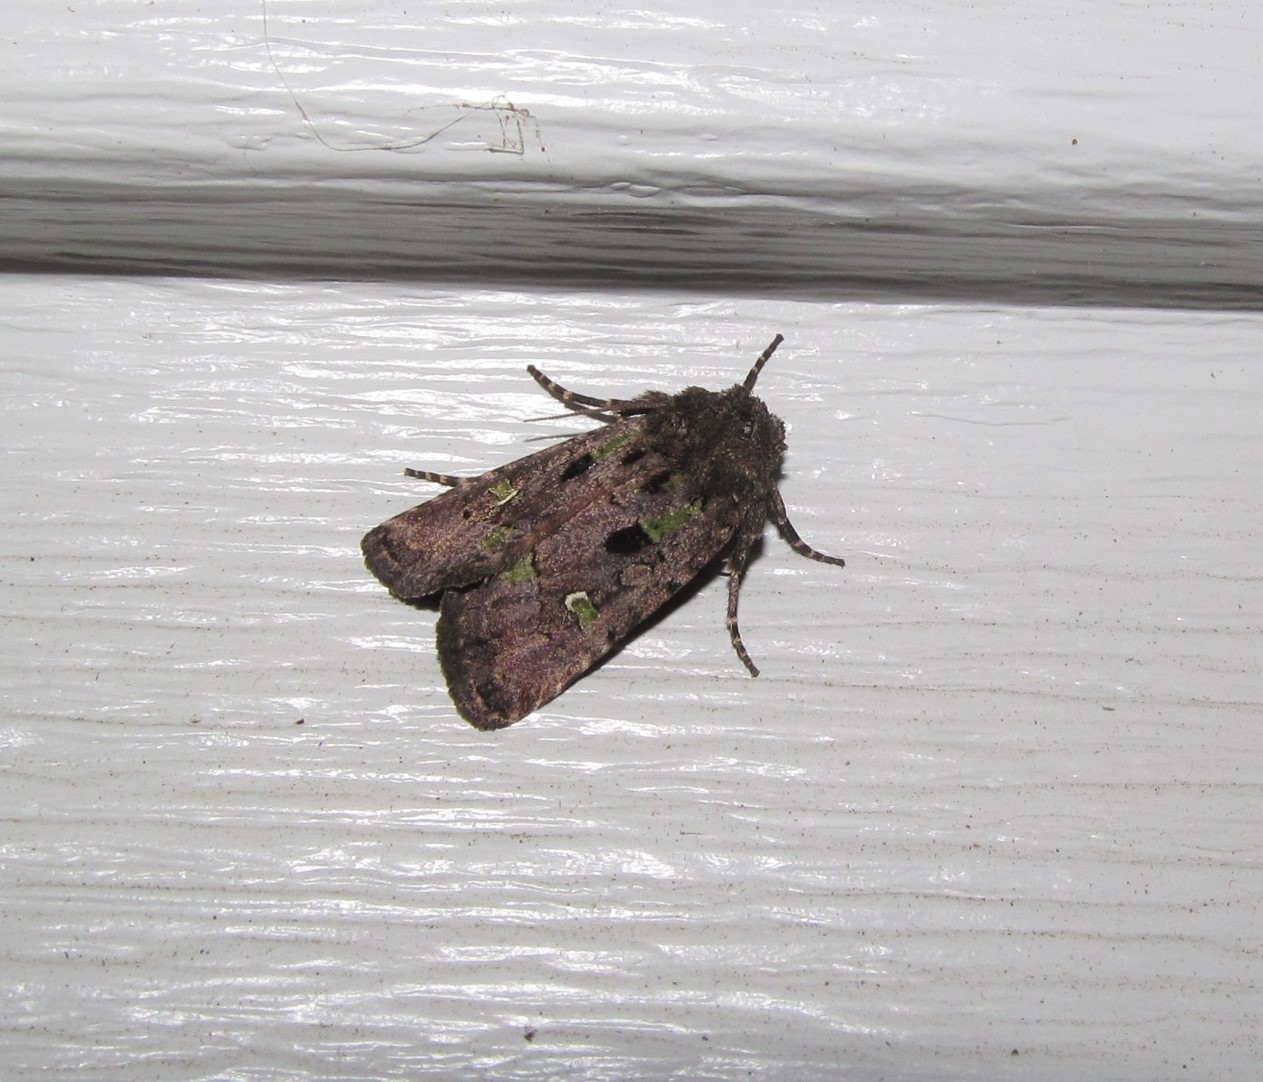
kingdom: Animalia
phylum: Arthropoda
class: Insecta
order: Lepidoptera
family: Noctuidae
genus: Lacinipolia
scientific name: Lacinipolia renigera
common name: Kidney-spotted minor
